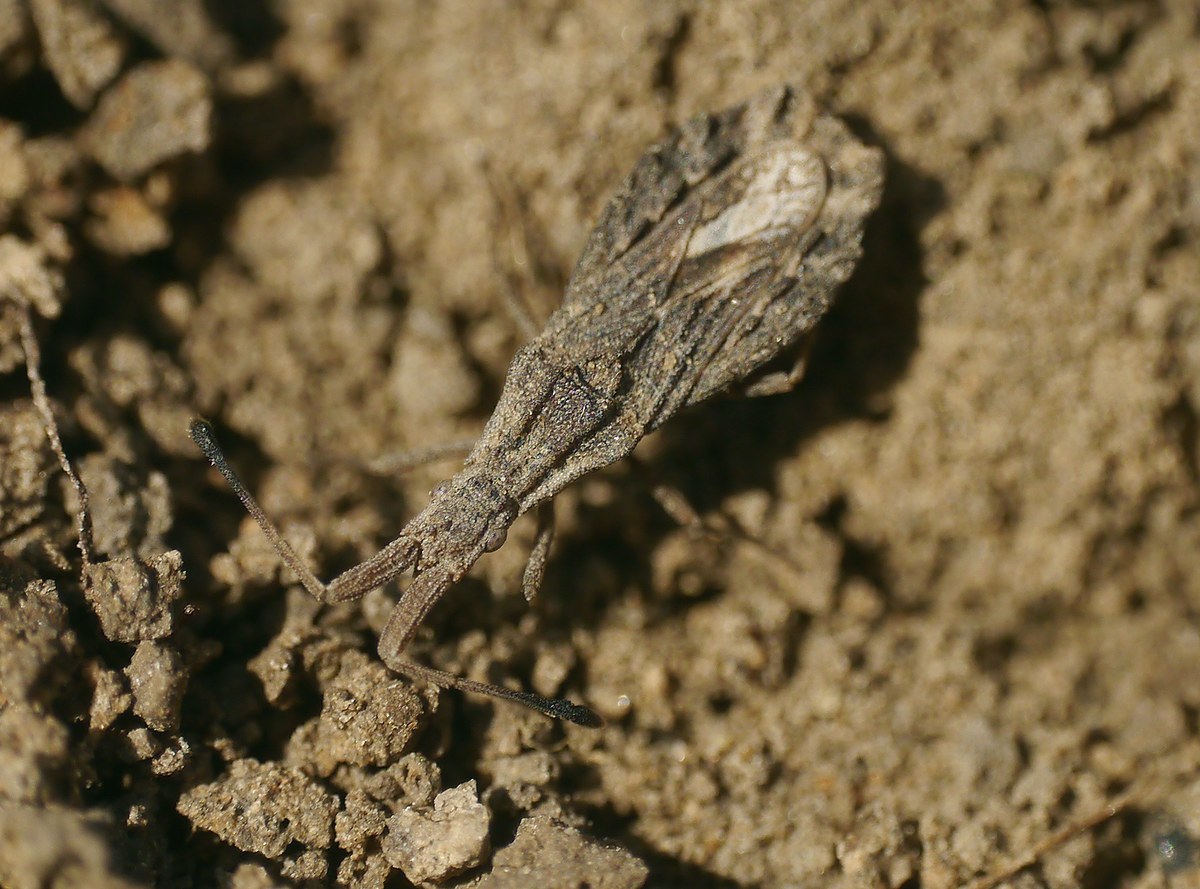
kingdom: Animalia
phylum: Arthropoda
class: Insecta
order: Hemiptera
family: Coreidae
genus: Spathocera
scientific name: Spathocera obscura
